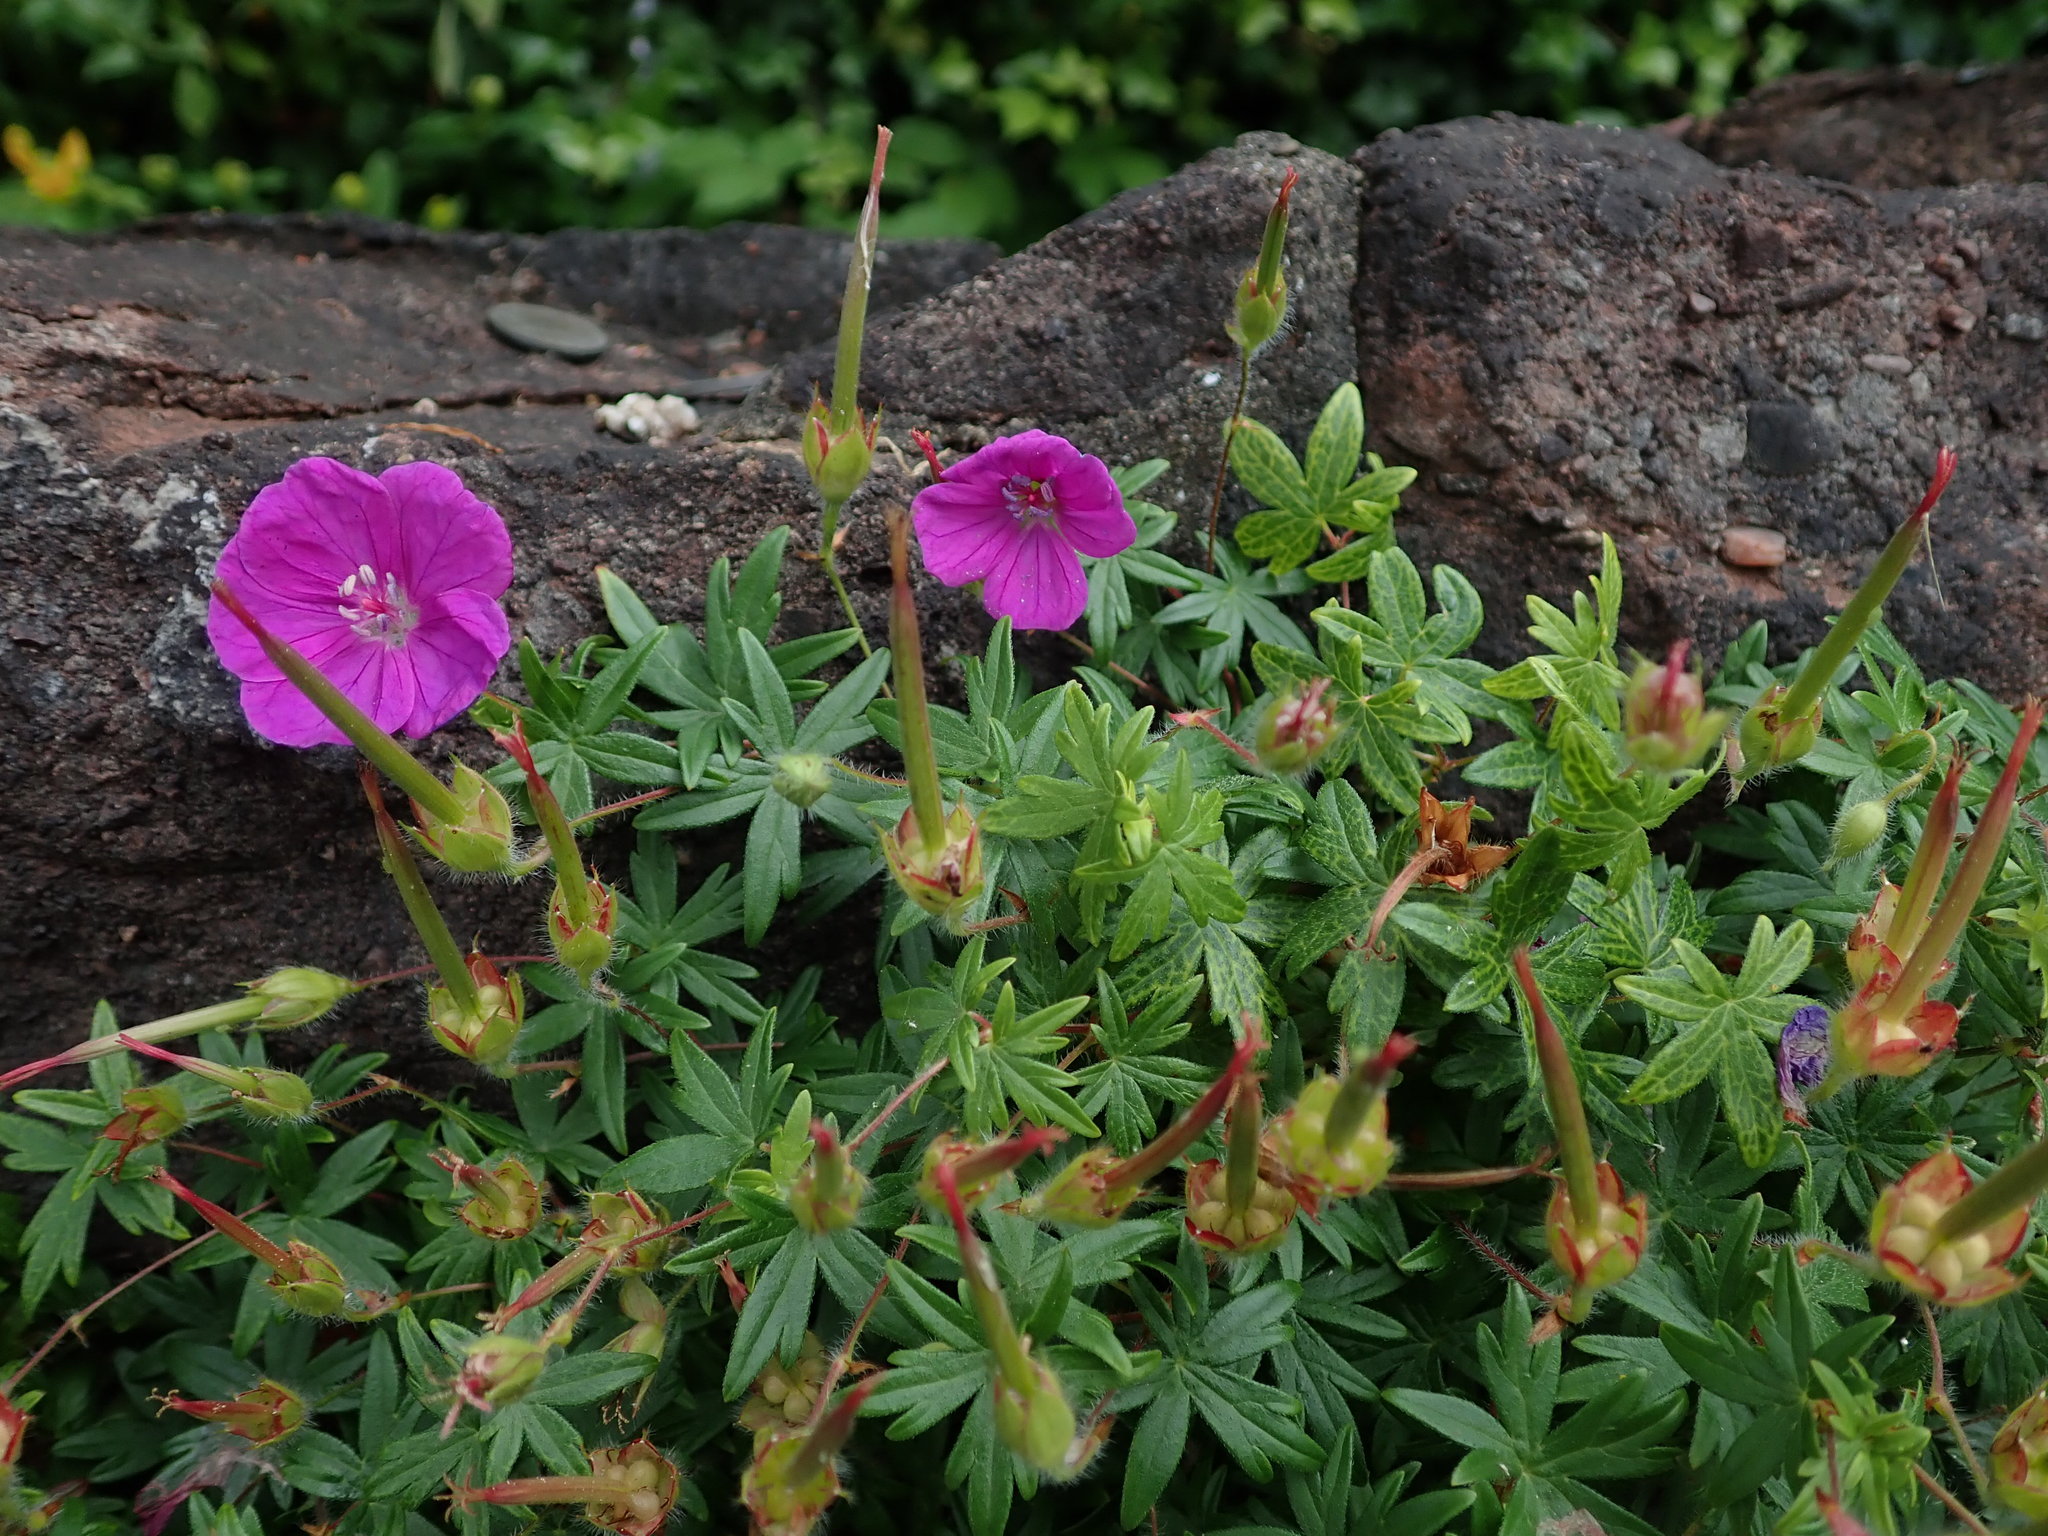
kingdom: Plantae
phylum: Tracheophyta
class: Magnoliopsida
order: Geraniales
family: Geraniaceae
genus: Geranium
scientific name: Geranium sanguineum
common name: Bloody crane's-bill
